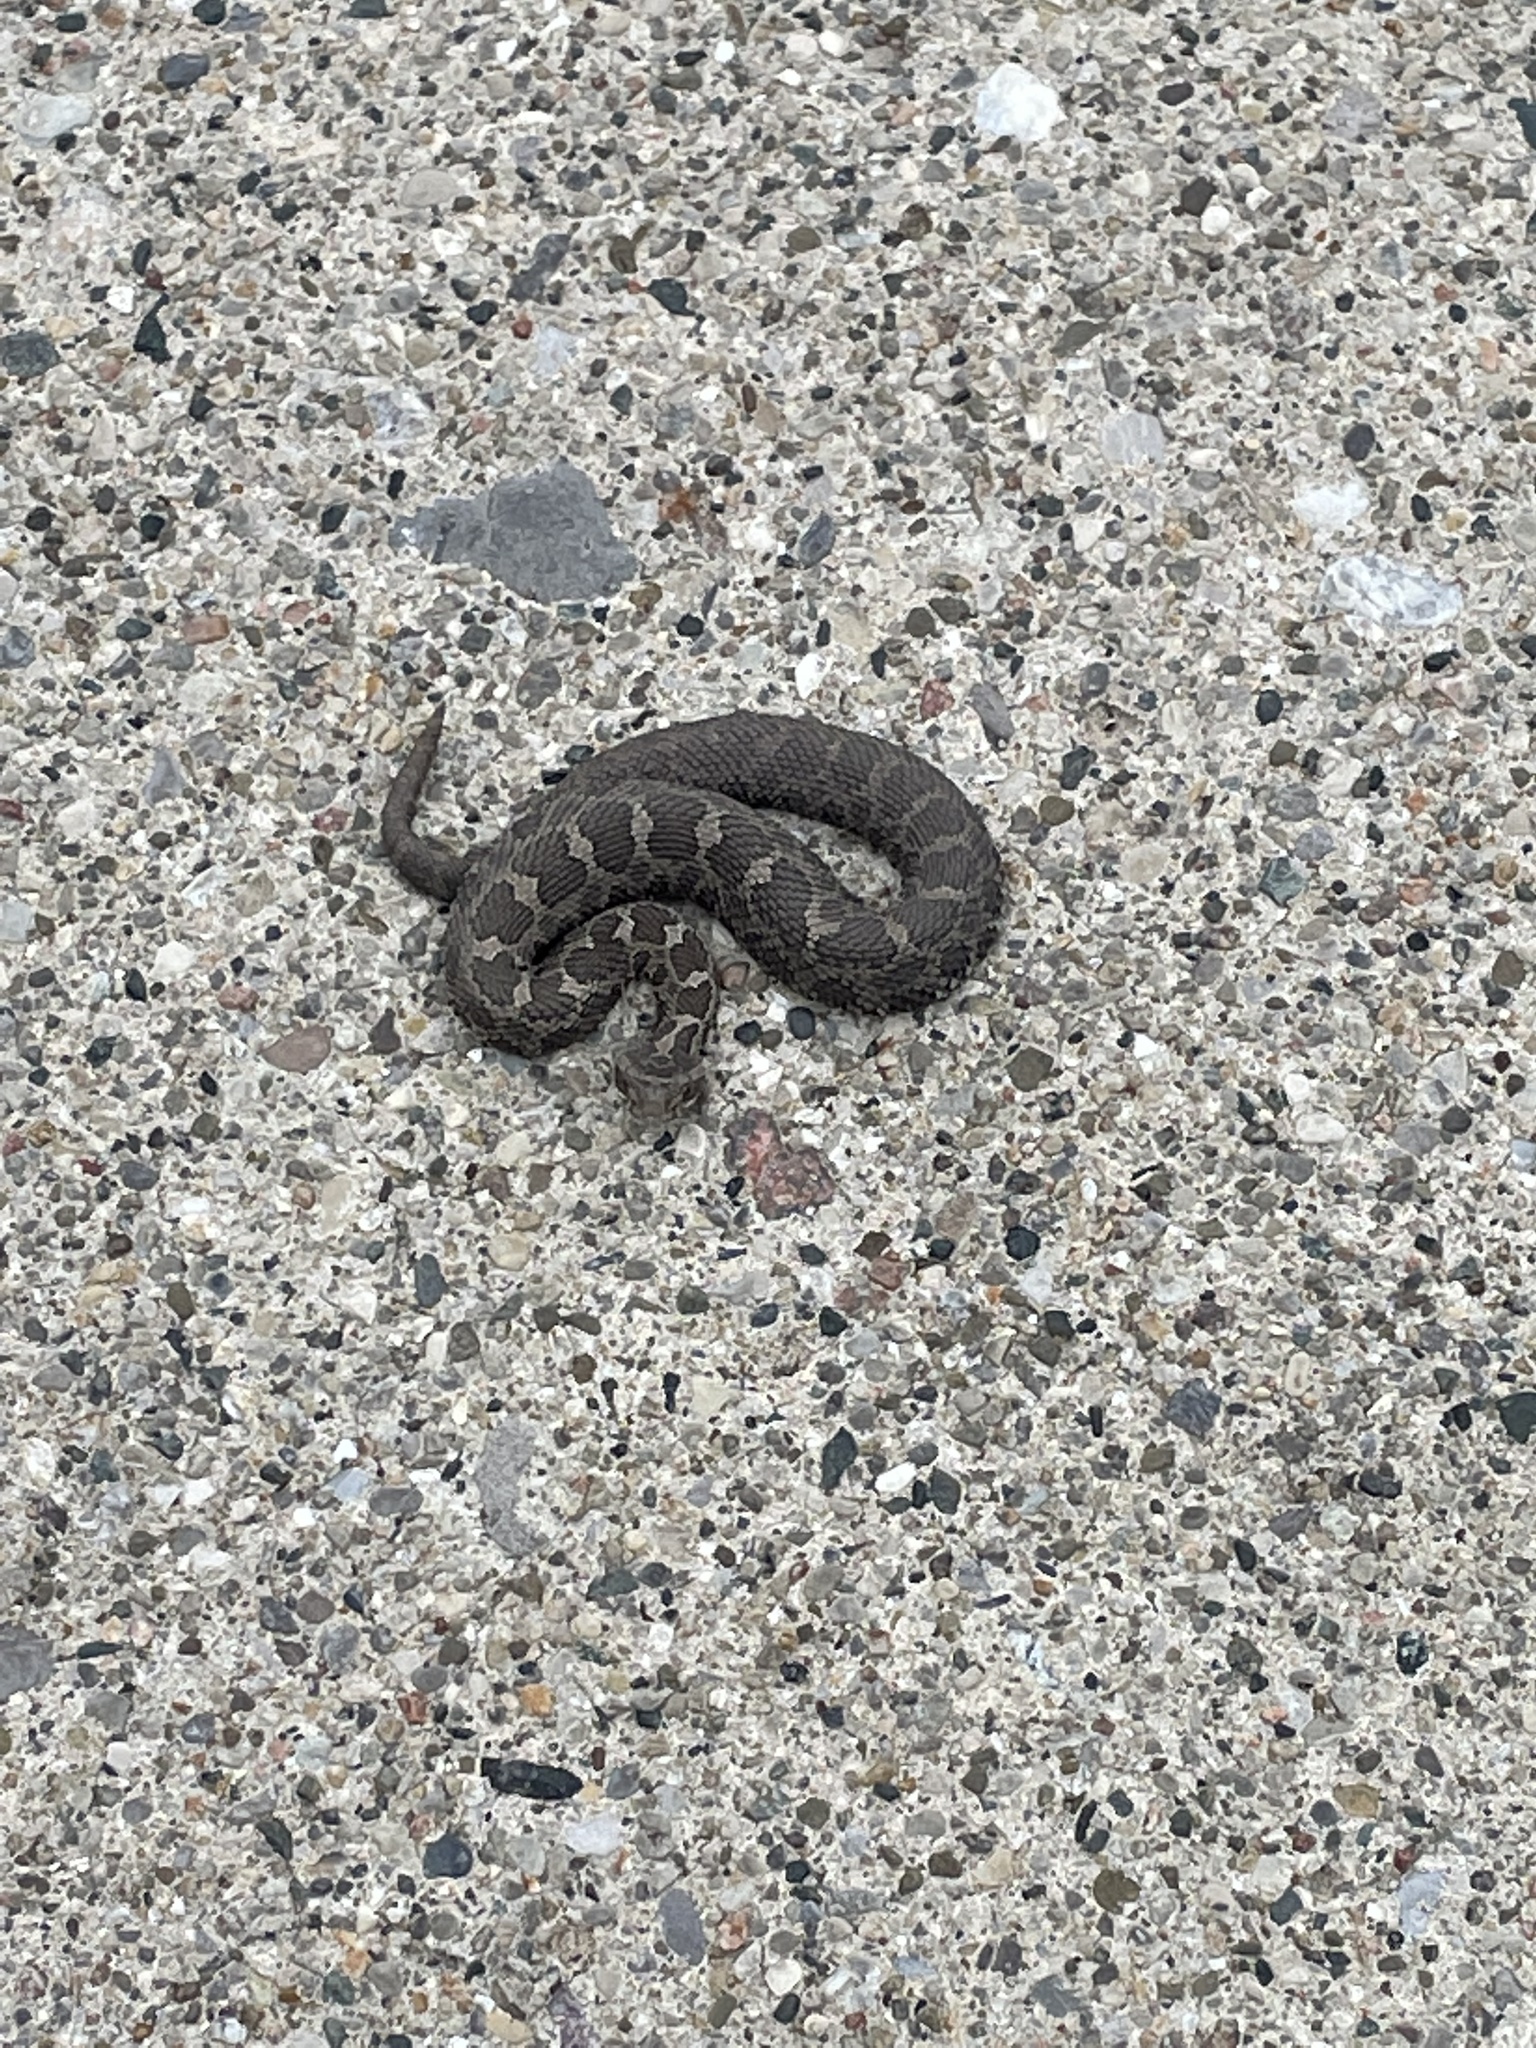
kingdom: Animalia
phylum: Chordata
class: Squamata
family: Viperidae
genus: Sistrurus
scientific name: Sistrurus catenatus
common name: Massasauga
